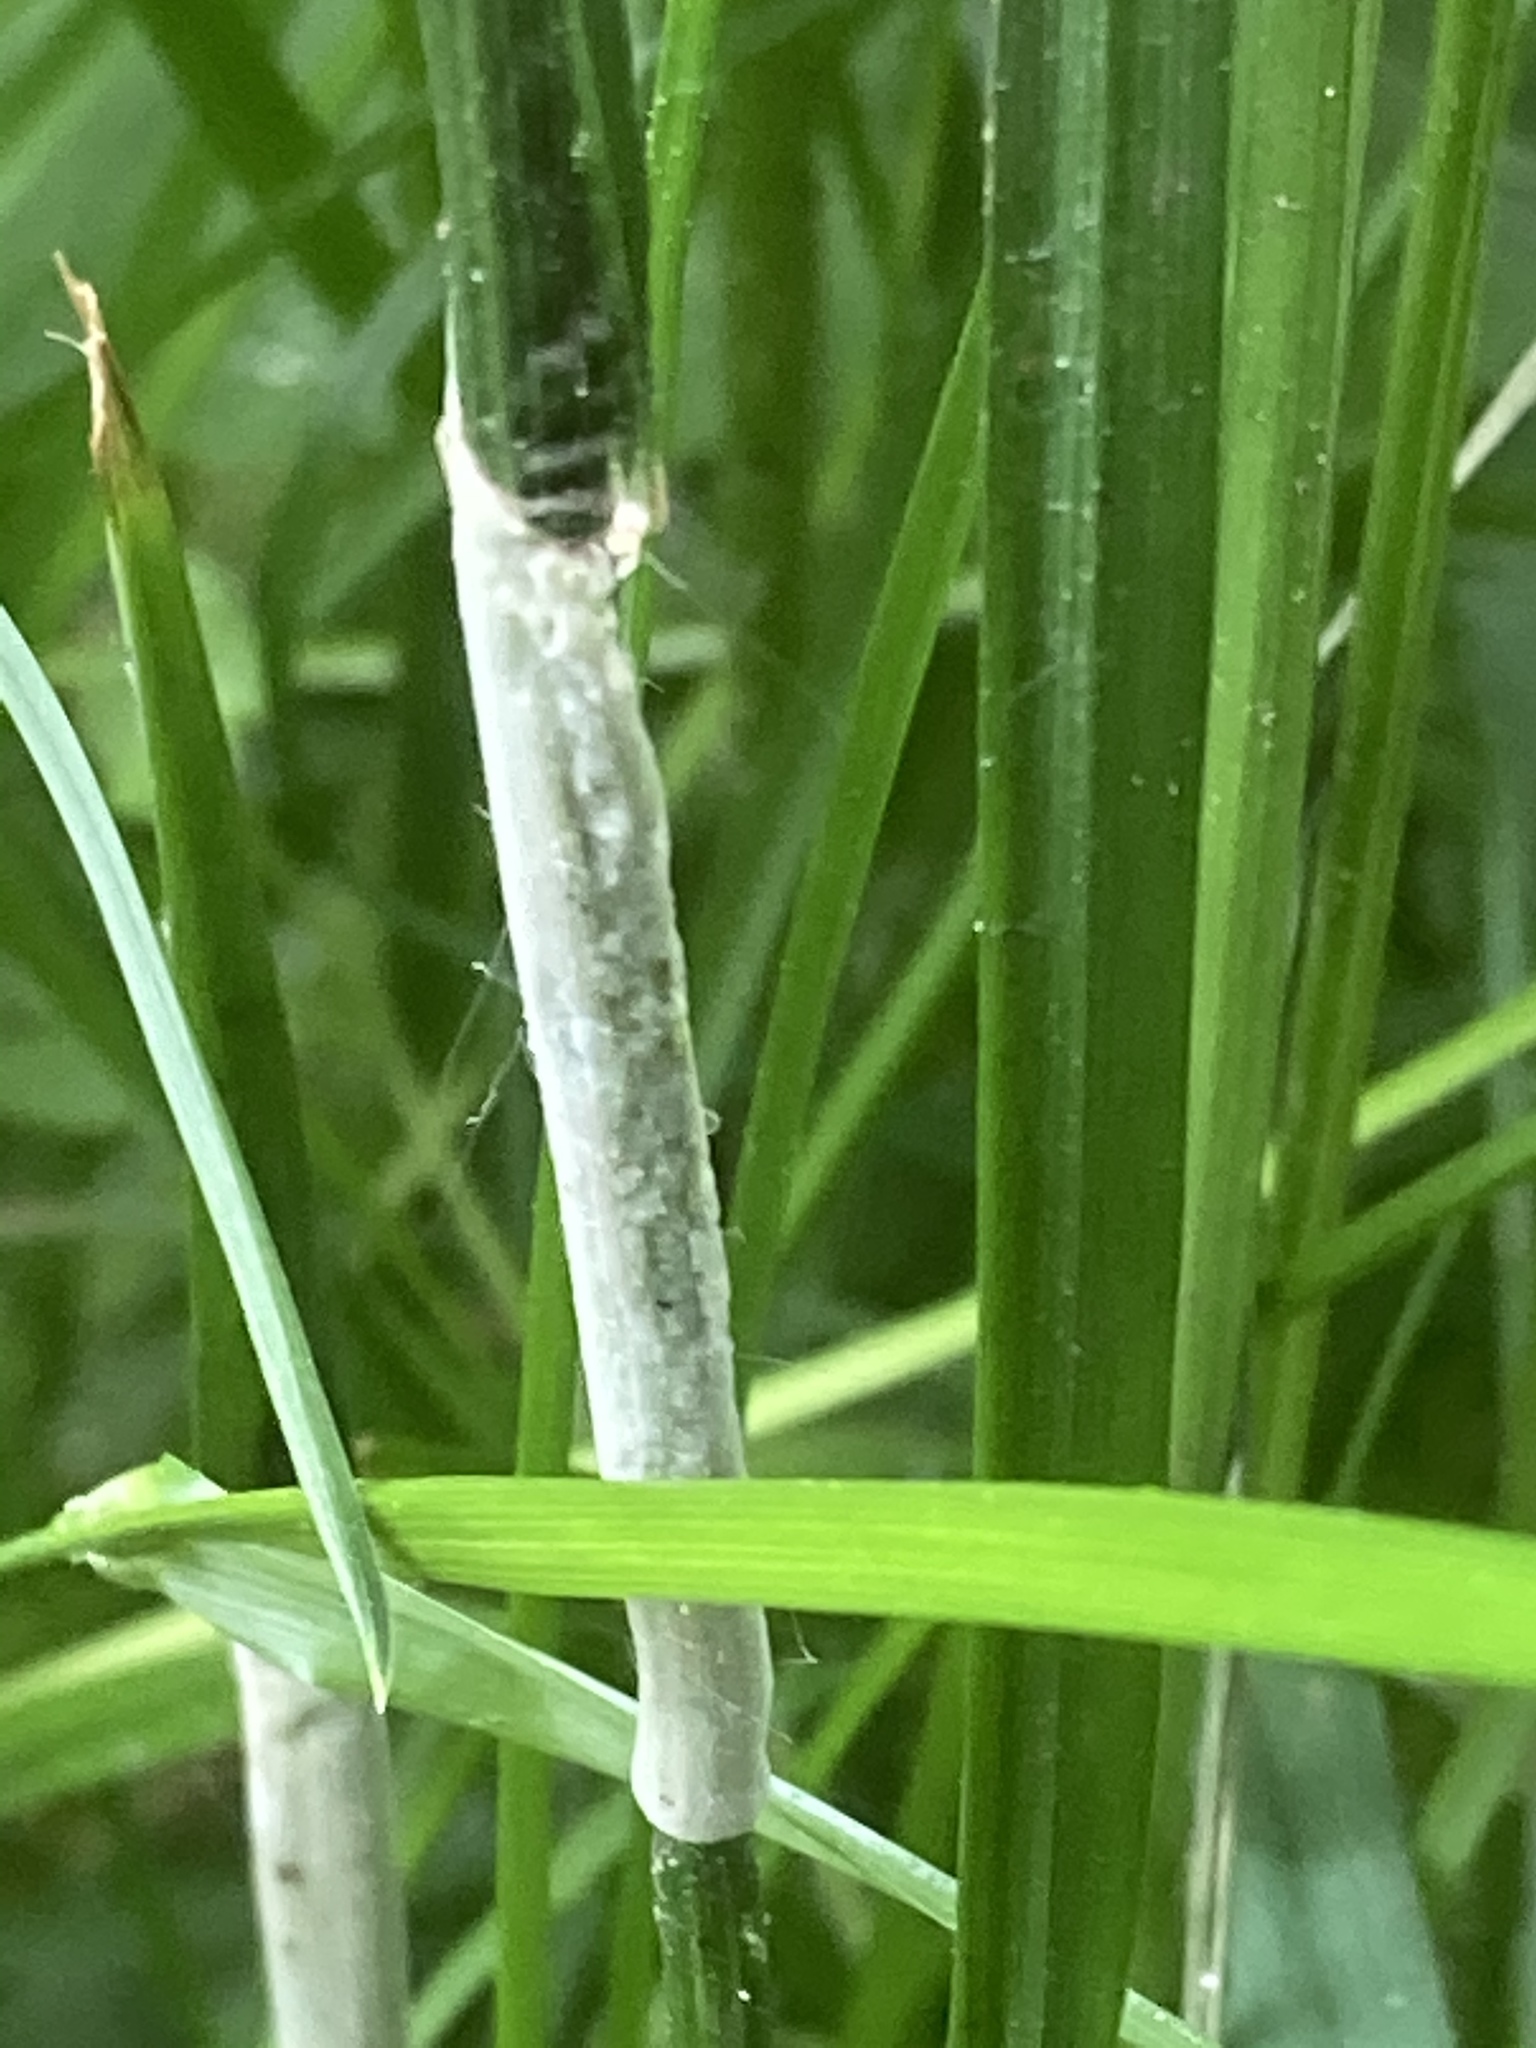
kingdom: Fungi
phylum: Ascomycota
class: Sordariomycetes
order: Hypocreales
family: Clavicipitaceae
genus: Epichloe
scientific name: Epichloe typhina
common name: Choke
